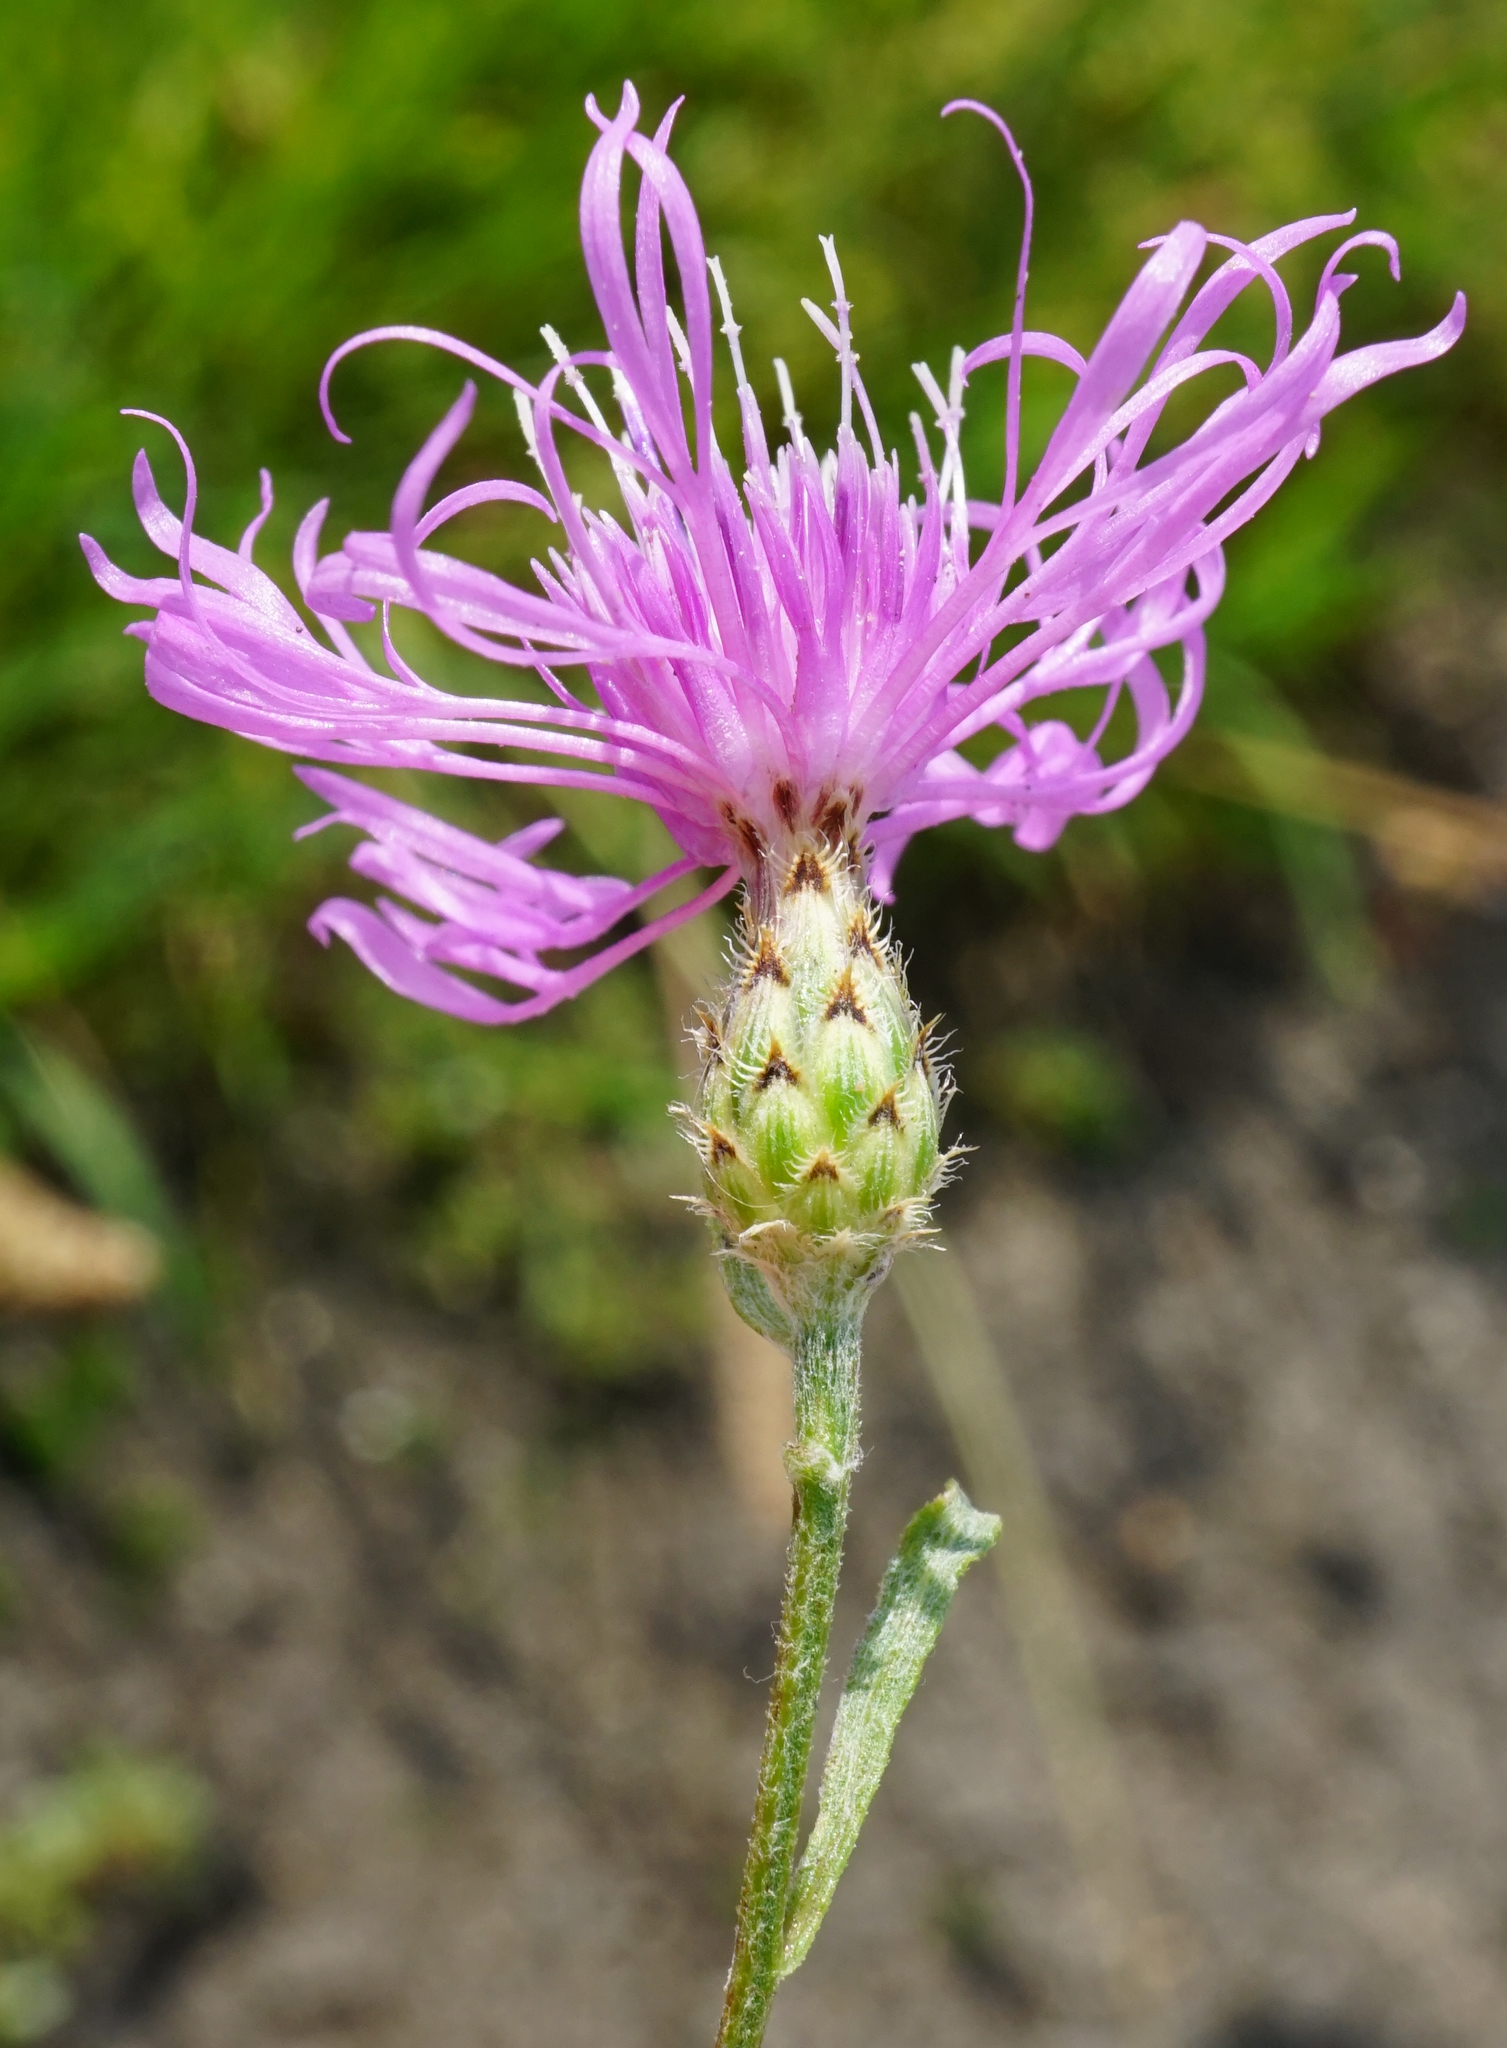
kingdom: Plantae
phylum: Tracheophyta
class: Magnoliopsida
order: Asterales
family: Asteraceae
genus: Centaurea
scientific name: Centaurea stoebe
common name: Spotted knapweed
